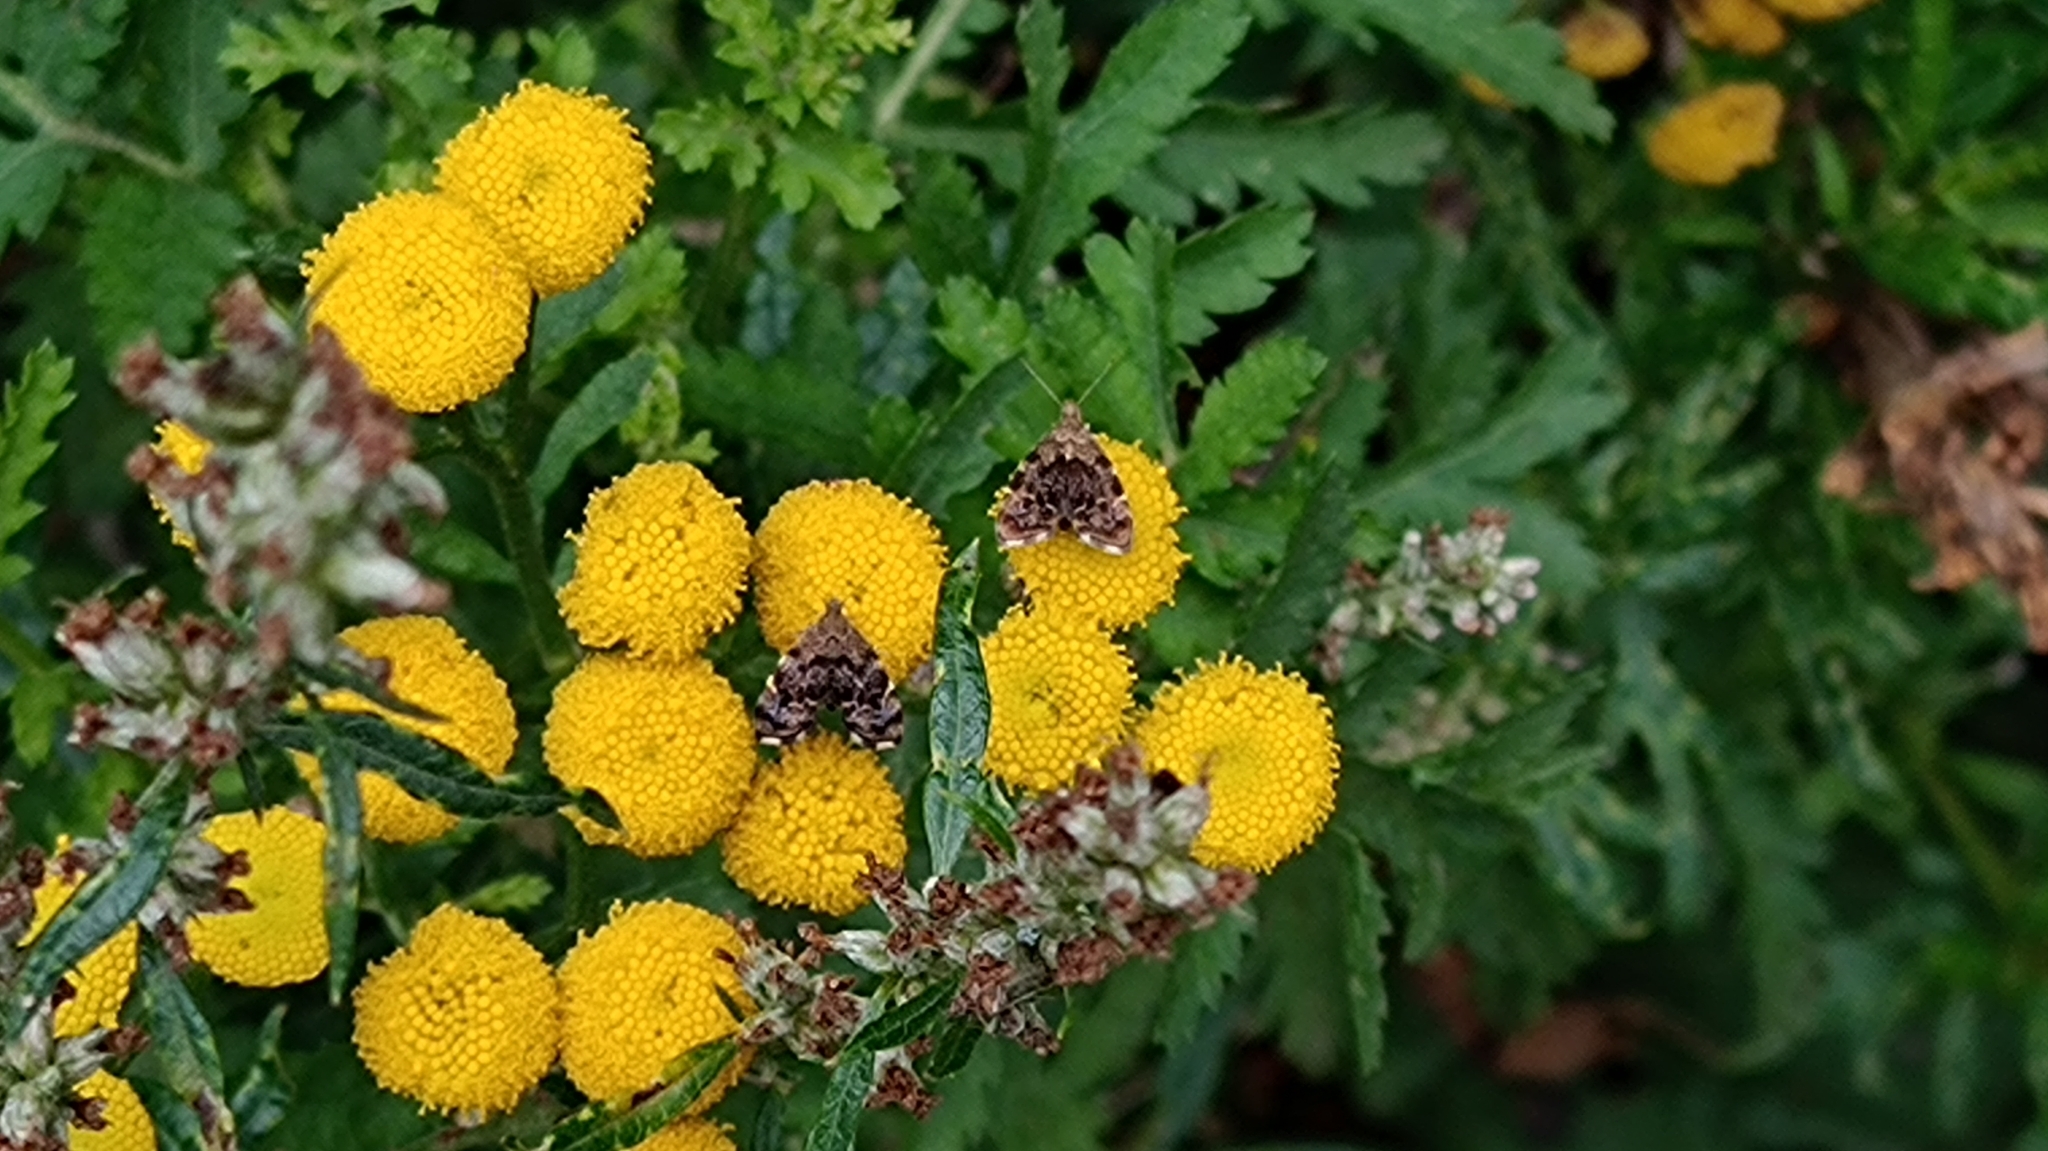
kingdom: Animalia
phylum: Arthropoda
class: Insecta
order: Lepidoptera
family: Choreutidae
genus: Anthophila
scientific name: Anthophila fabriciana
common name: Nettle-tap
